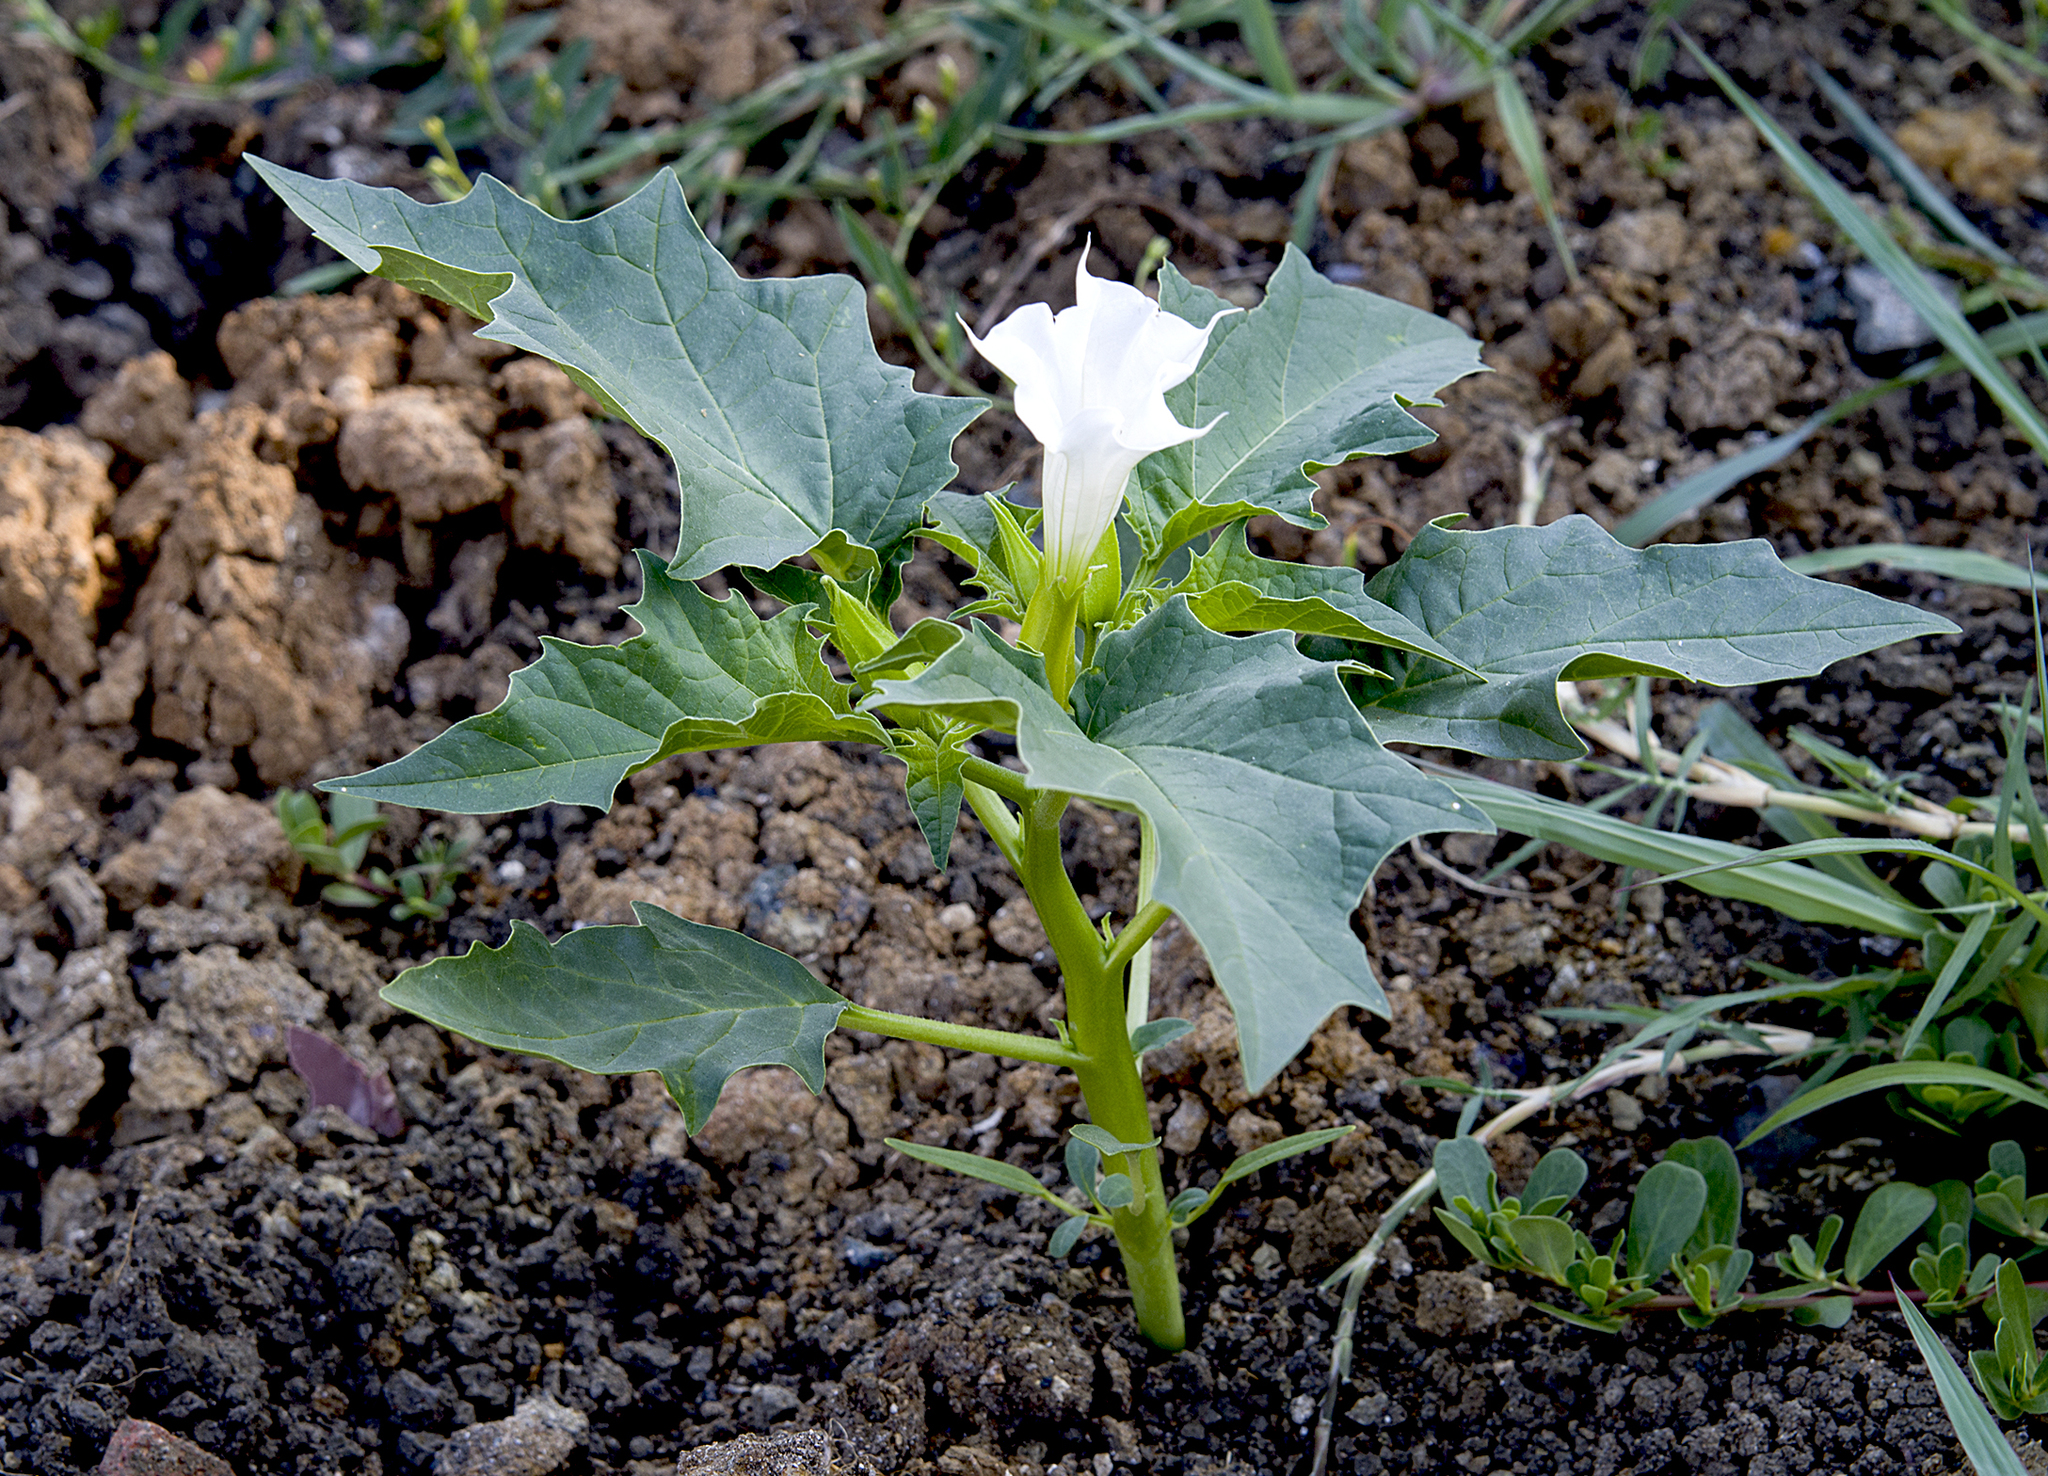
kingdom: Plantae
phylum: Tracheophyta
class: Magnoliopsida
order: Solanales
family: Solanaceae
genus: Datura
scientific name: Datura stramonium
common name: Thorn-apple
